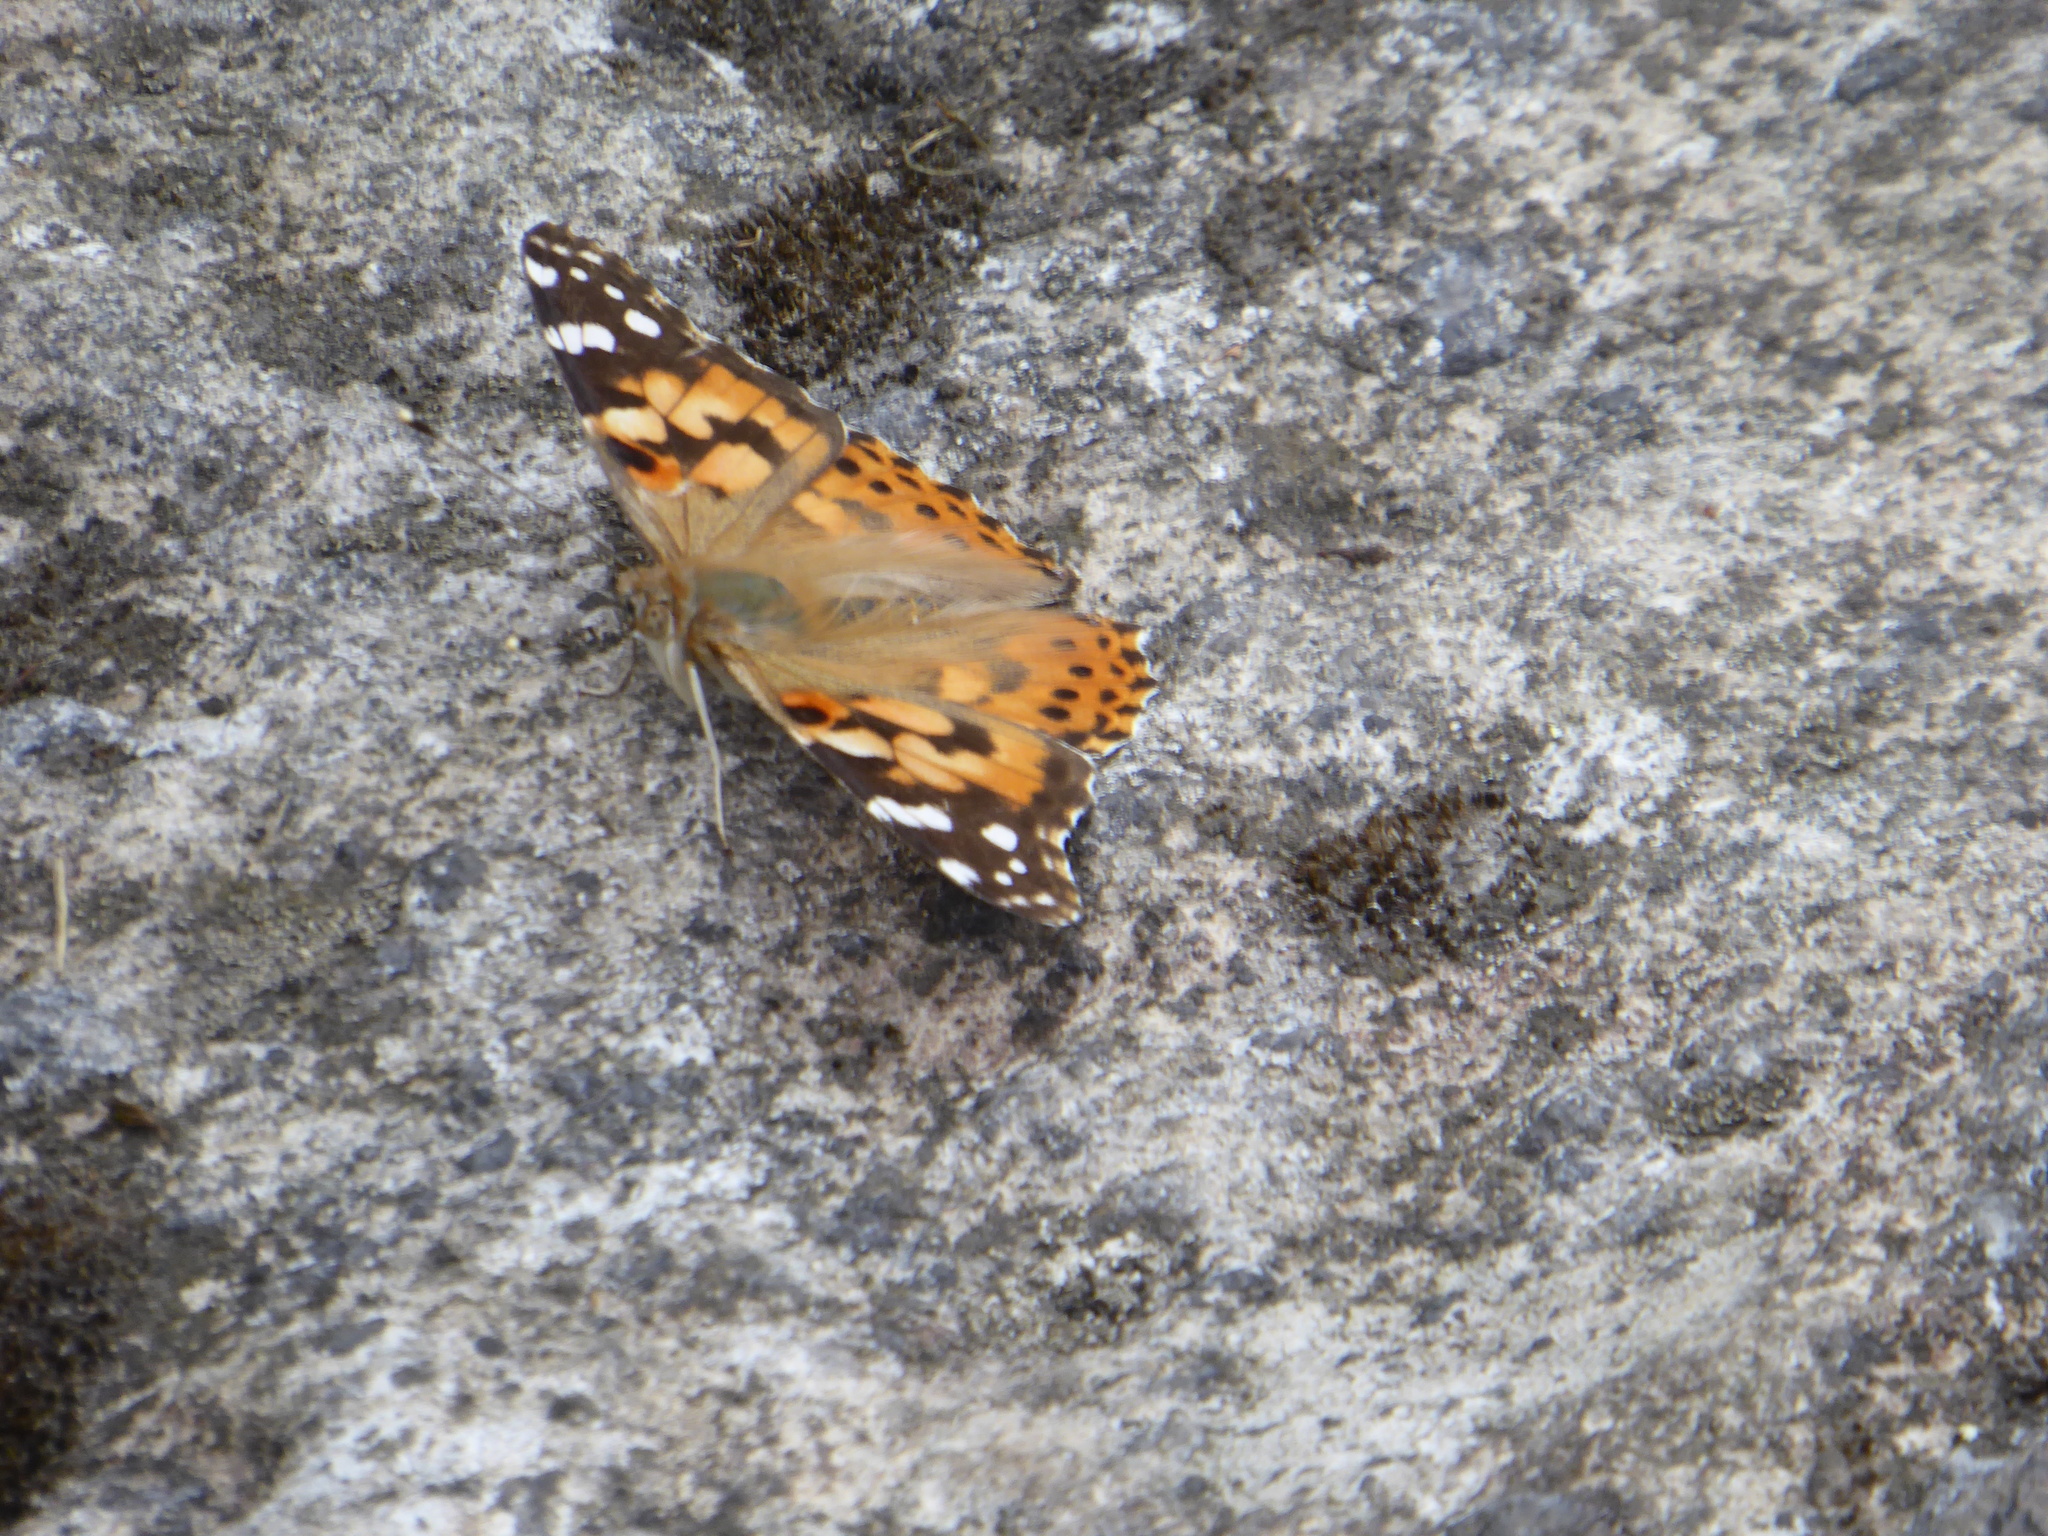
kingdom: Animalia
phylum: Arthropoda
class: Insecta
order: Lepidoptera
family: Nymphalidae
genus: Vanessa
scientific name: Vanessa cardui
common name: Painted lady
